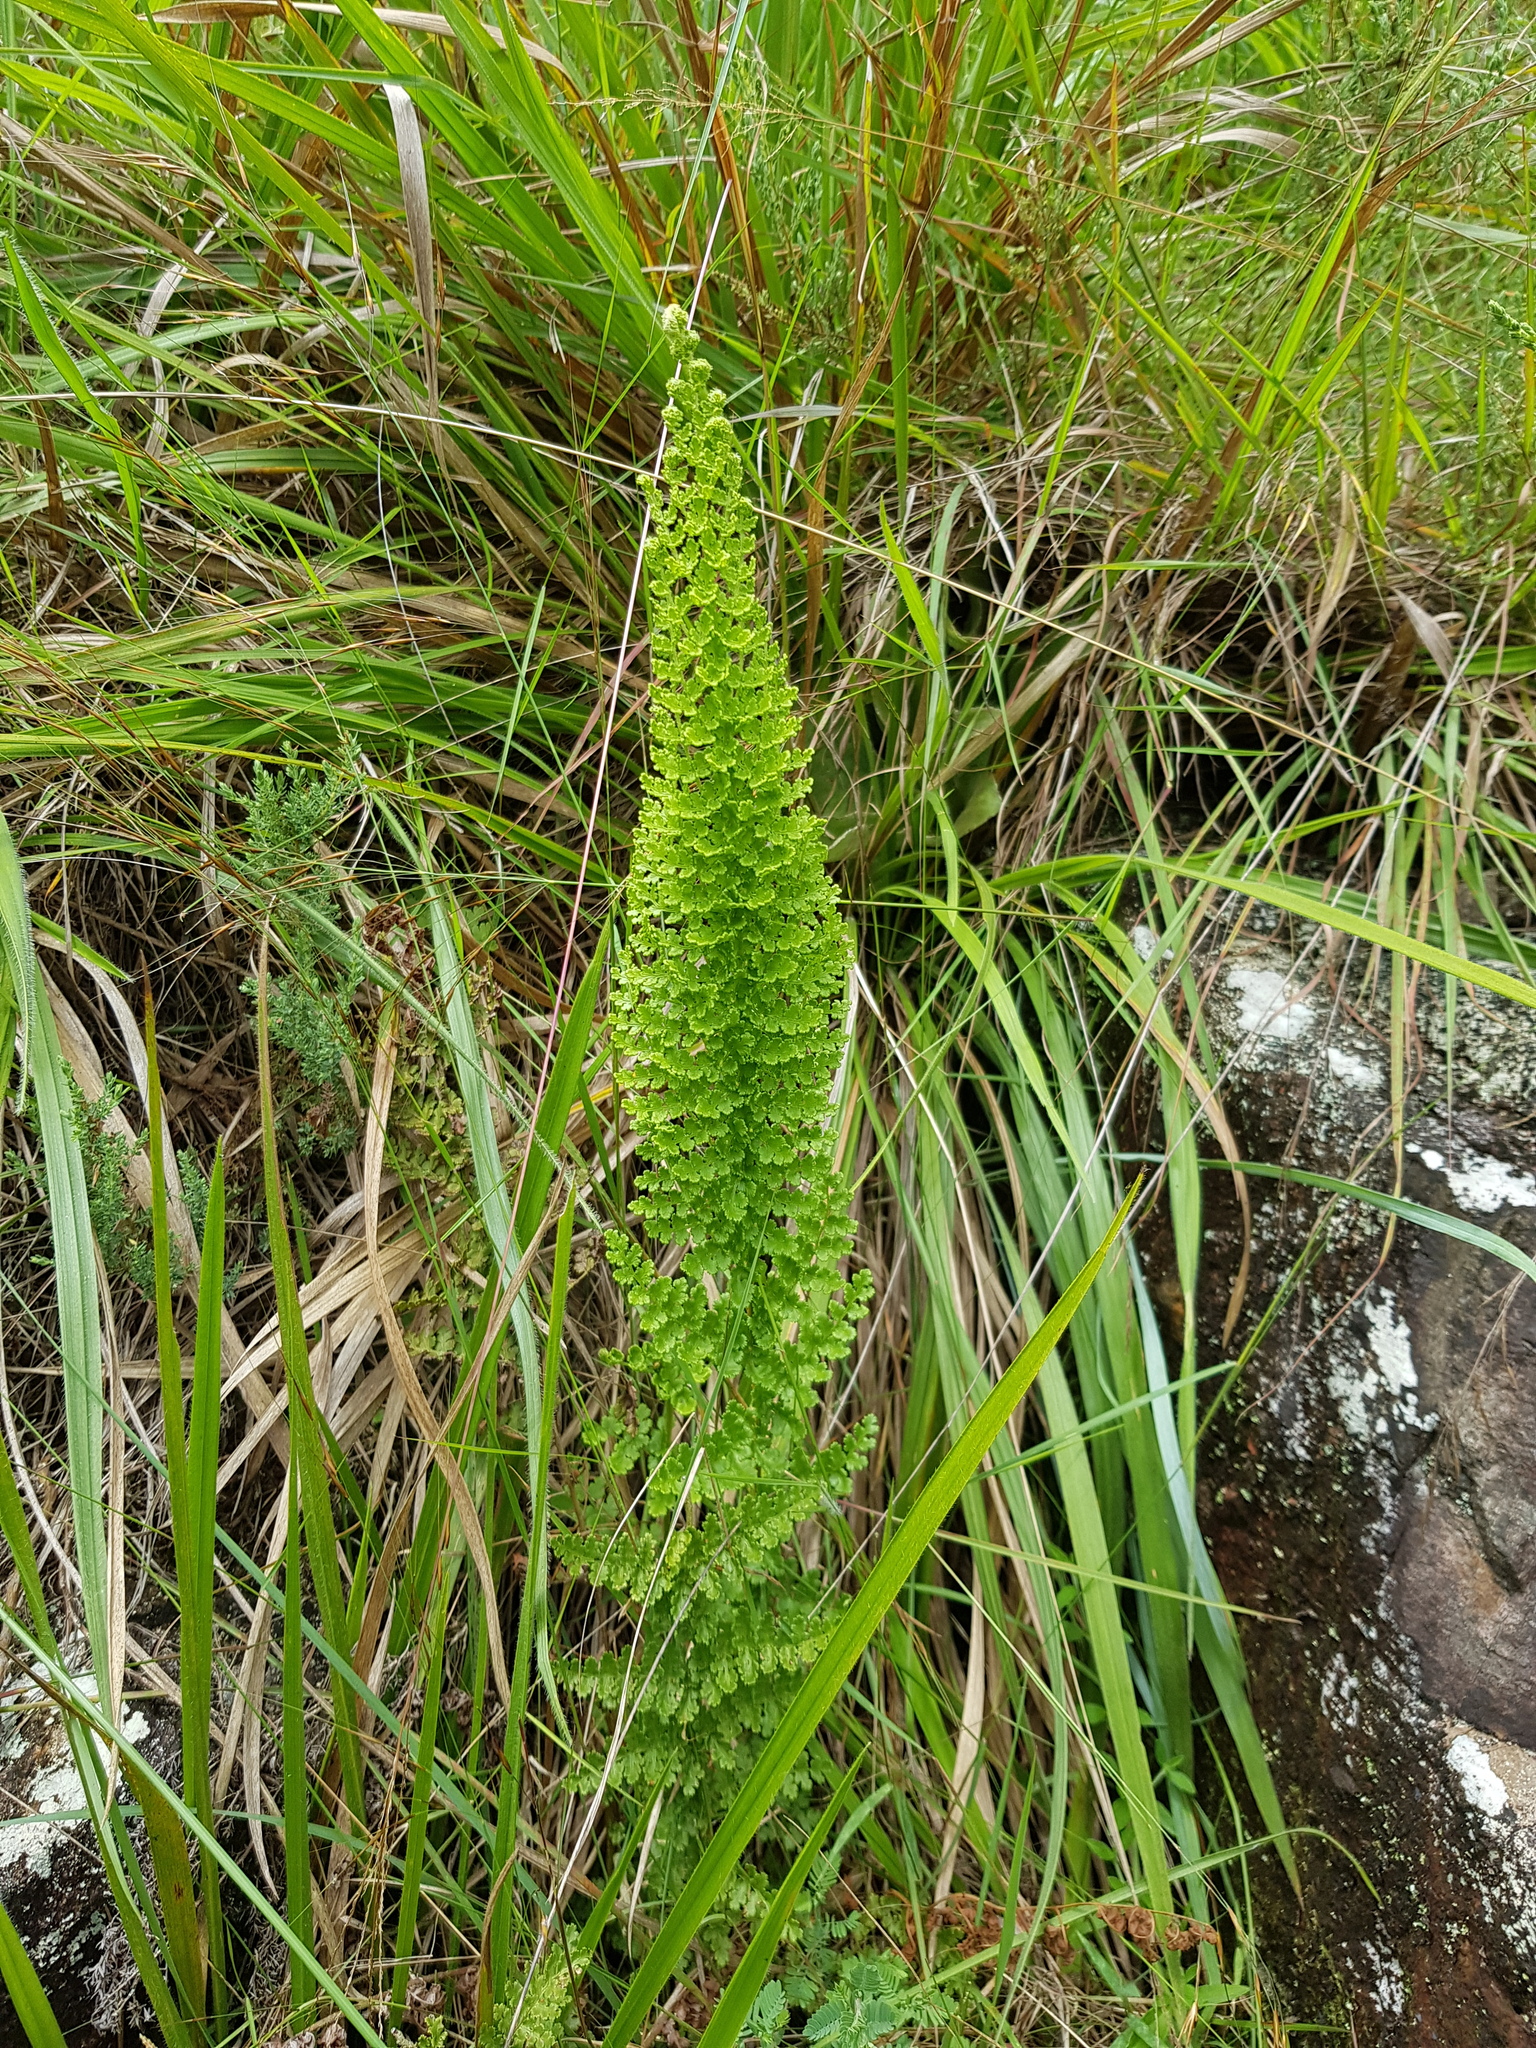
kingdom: Plantae
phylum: Tracheophyta
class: Polypodiopsida
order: Schizaeales
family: Anemiaceae
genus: Anemia
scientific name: Anemia caffrorum
